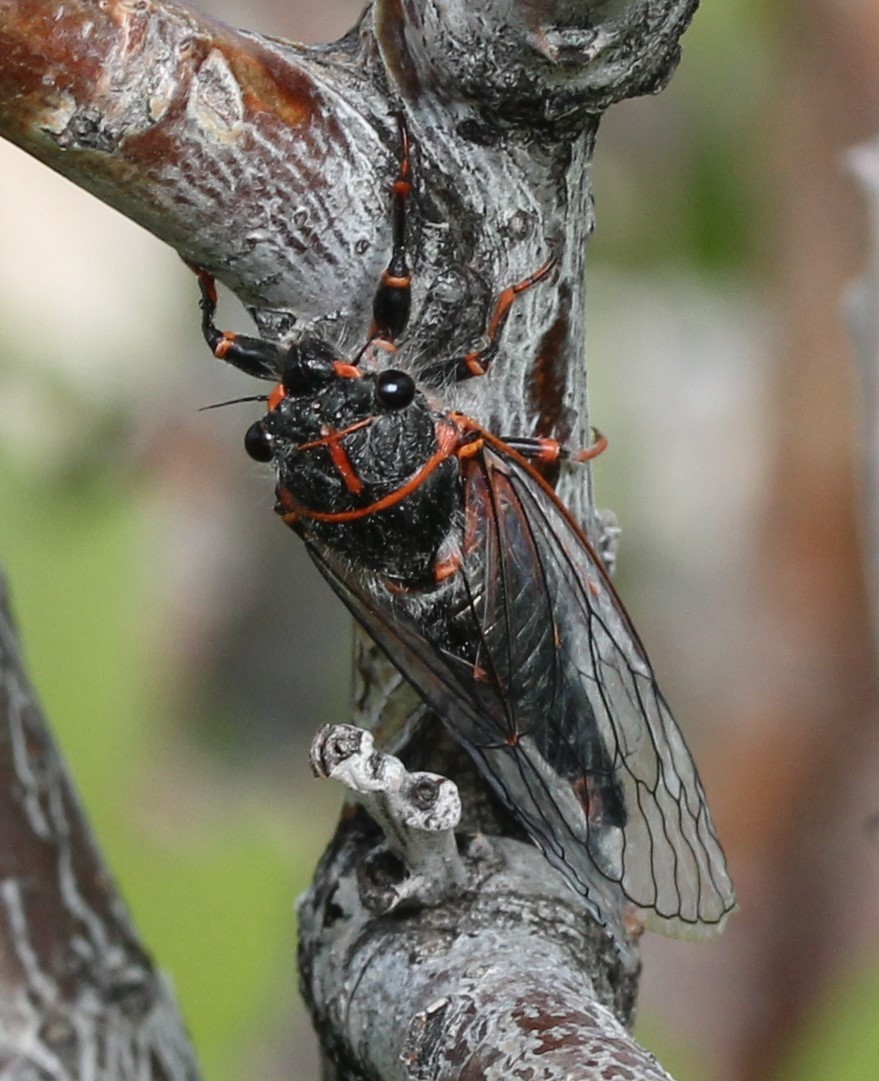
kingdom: Animalia
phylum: Arthropoda
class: Insecta
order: Hemiptera
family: Cicadidae
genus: Platypedia
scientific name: Platypedia putnami
